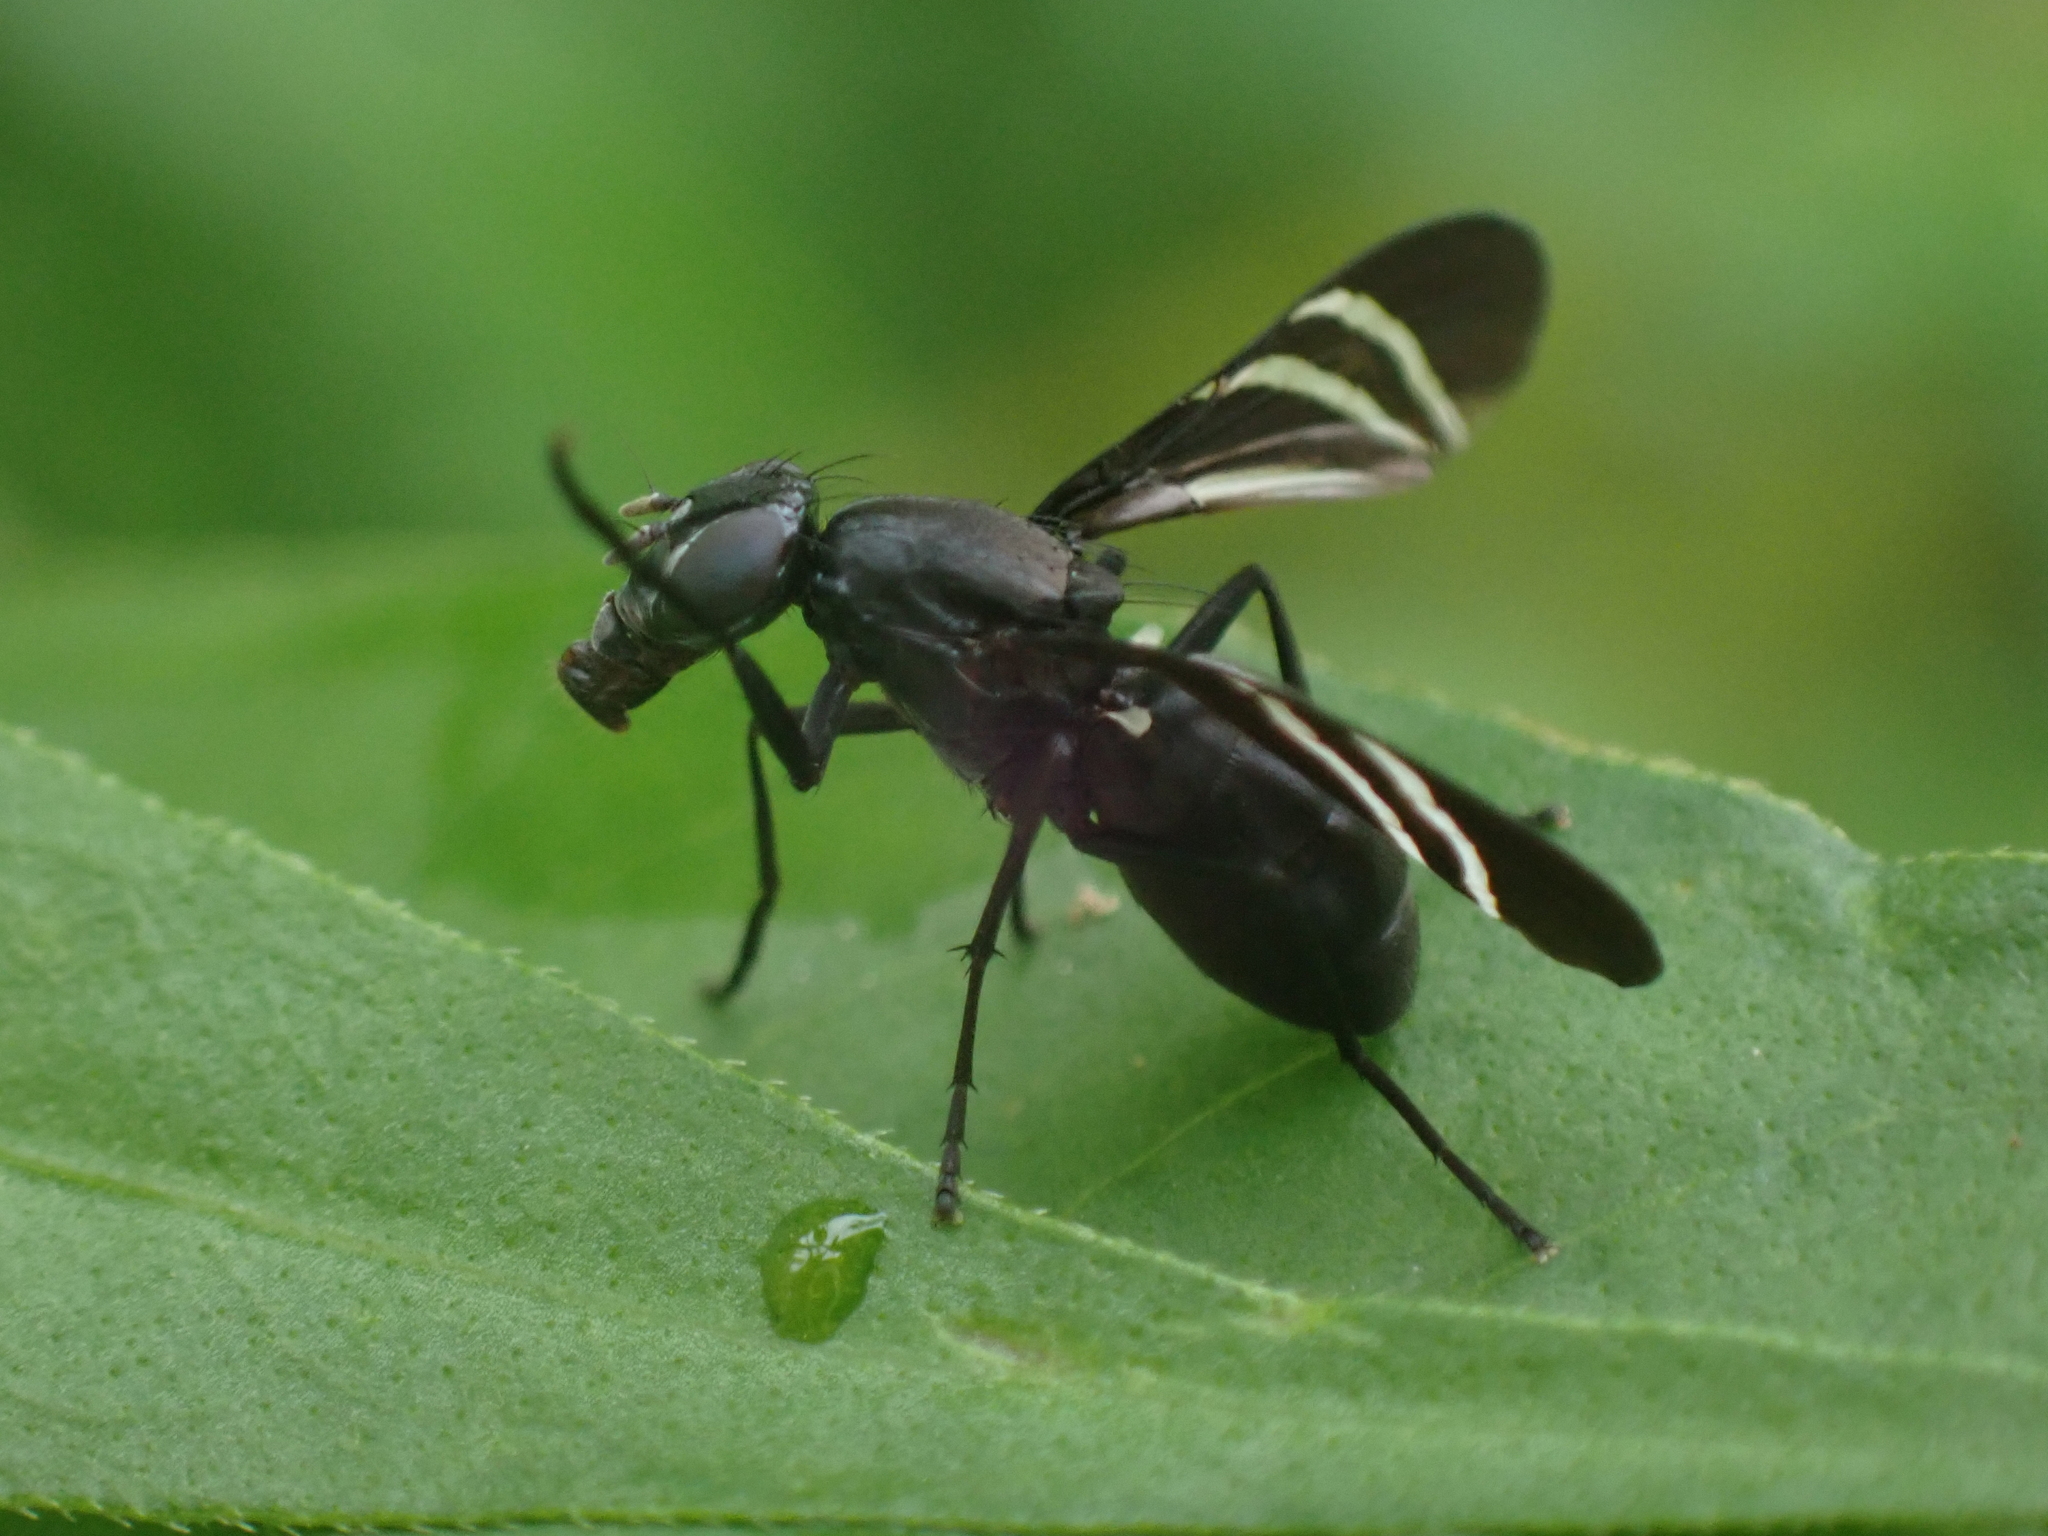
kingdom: Animalia
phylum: Arthropoda
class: Insecta
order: Diptera
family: Ulidiidae
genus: Tritoxa
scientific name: Tritoxa flexa
